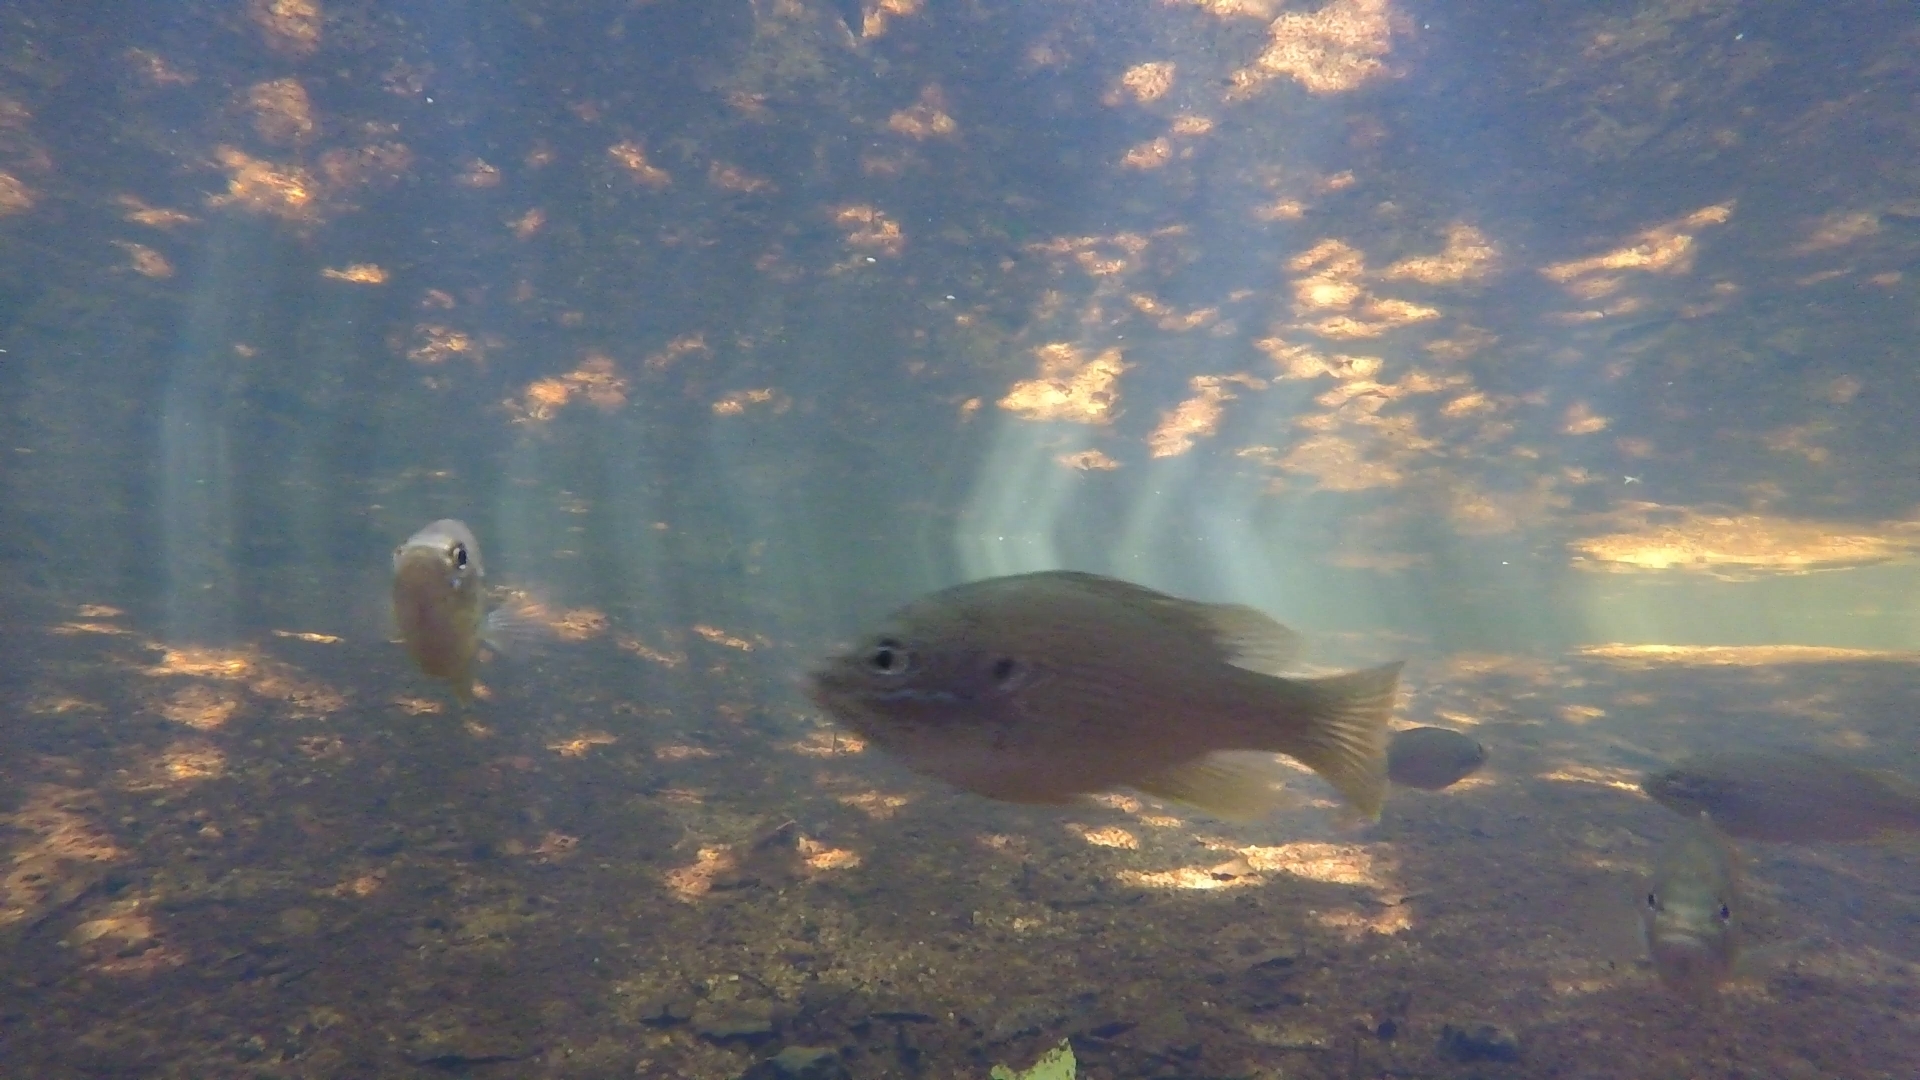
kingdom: Animalia
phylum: Chordata
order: Perciformes
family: Centrarchidae
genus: Lepomis
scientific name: Lepomis cyanellus
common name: Green sunfish
